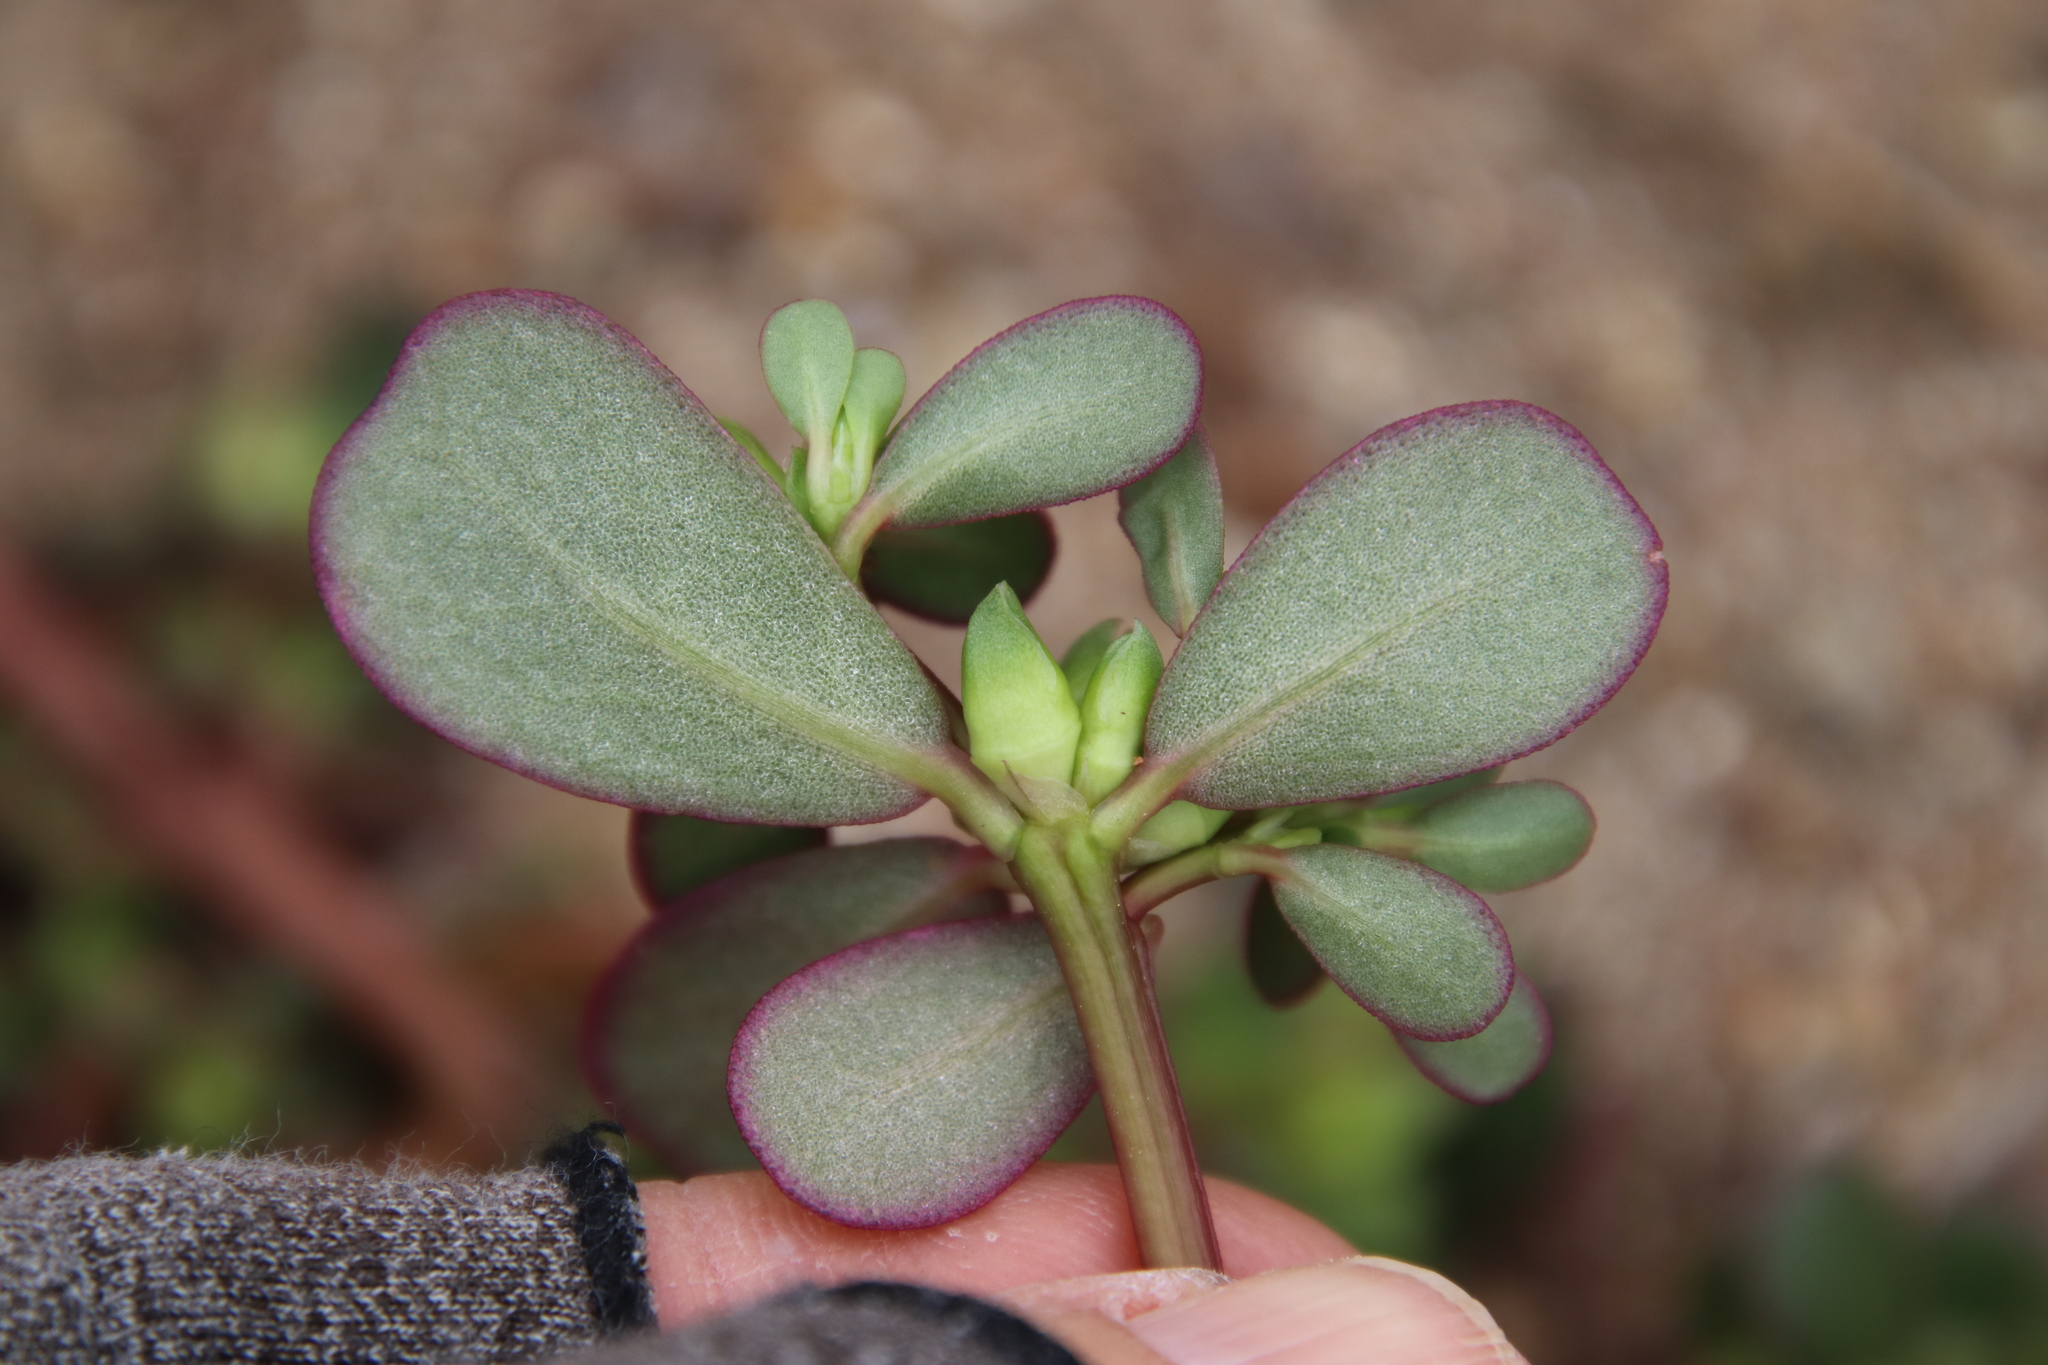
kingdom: Plantae
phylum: Tracheophyta
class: Magnoliopsida
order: Caryophyllales
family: Portulacaceae
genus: Portulaca
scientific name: Portulaca oleracea
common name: Common purslane
